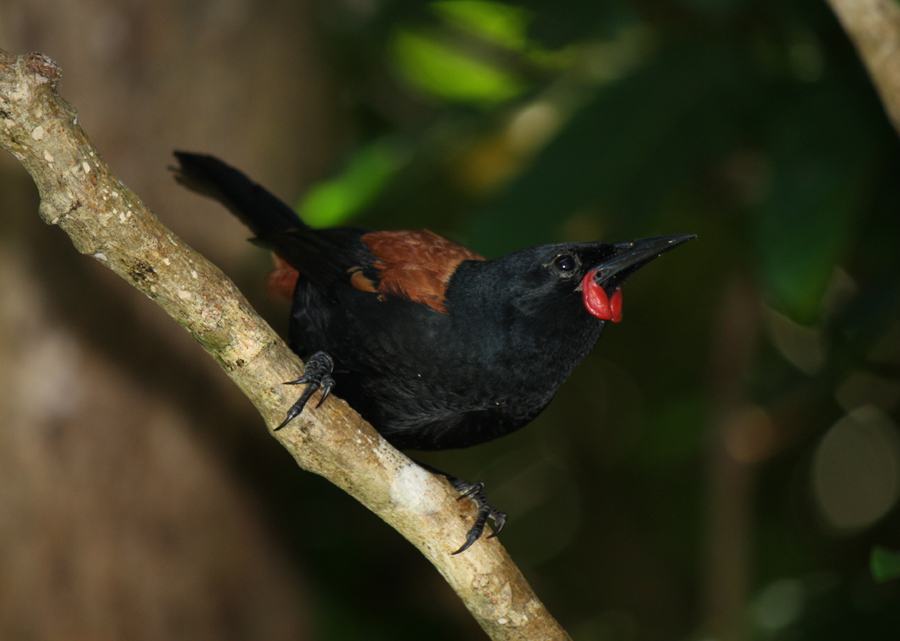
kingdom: Animalia
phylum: Chordata
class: Aves
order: Passeriformes
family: Callaeatidae
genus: Philesturnus
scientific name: Philesturnus carunculatus
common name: South island saddleback
